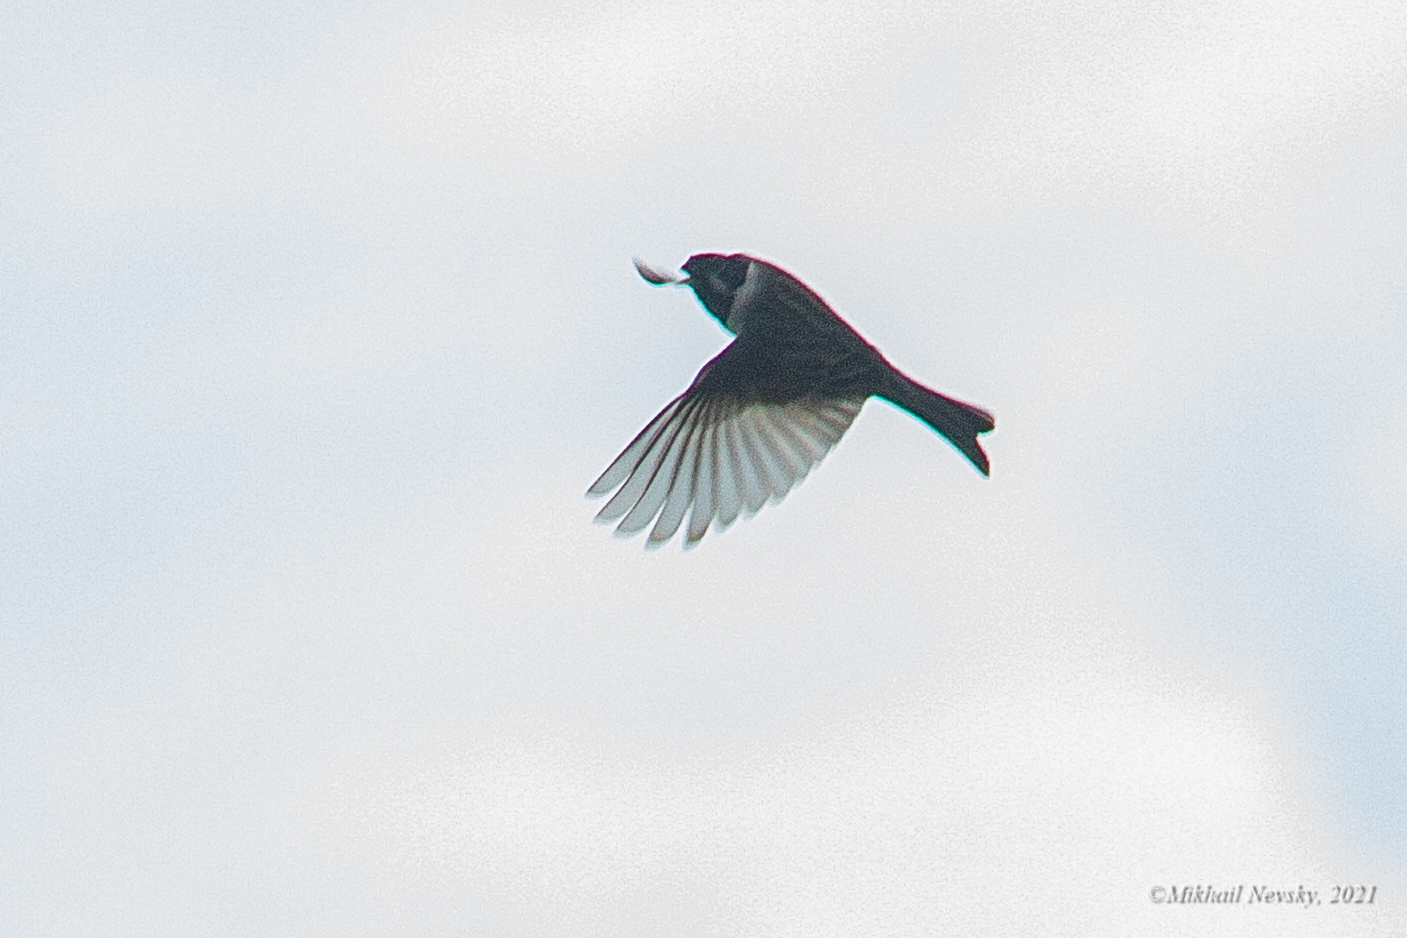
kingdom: Animalia
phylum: Chordata
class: Aves
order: Passeriformes
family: Emberizidae
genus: Emberiza
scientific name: Emberiza schoeniclus
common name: Reed bunting
